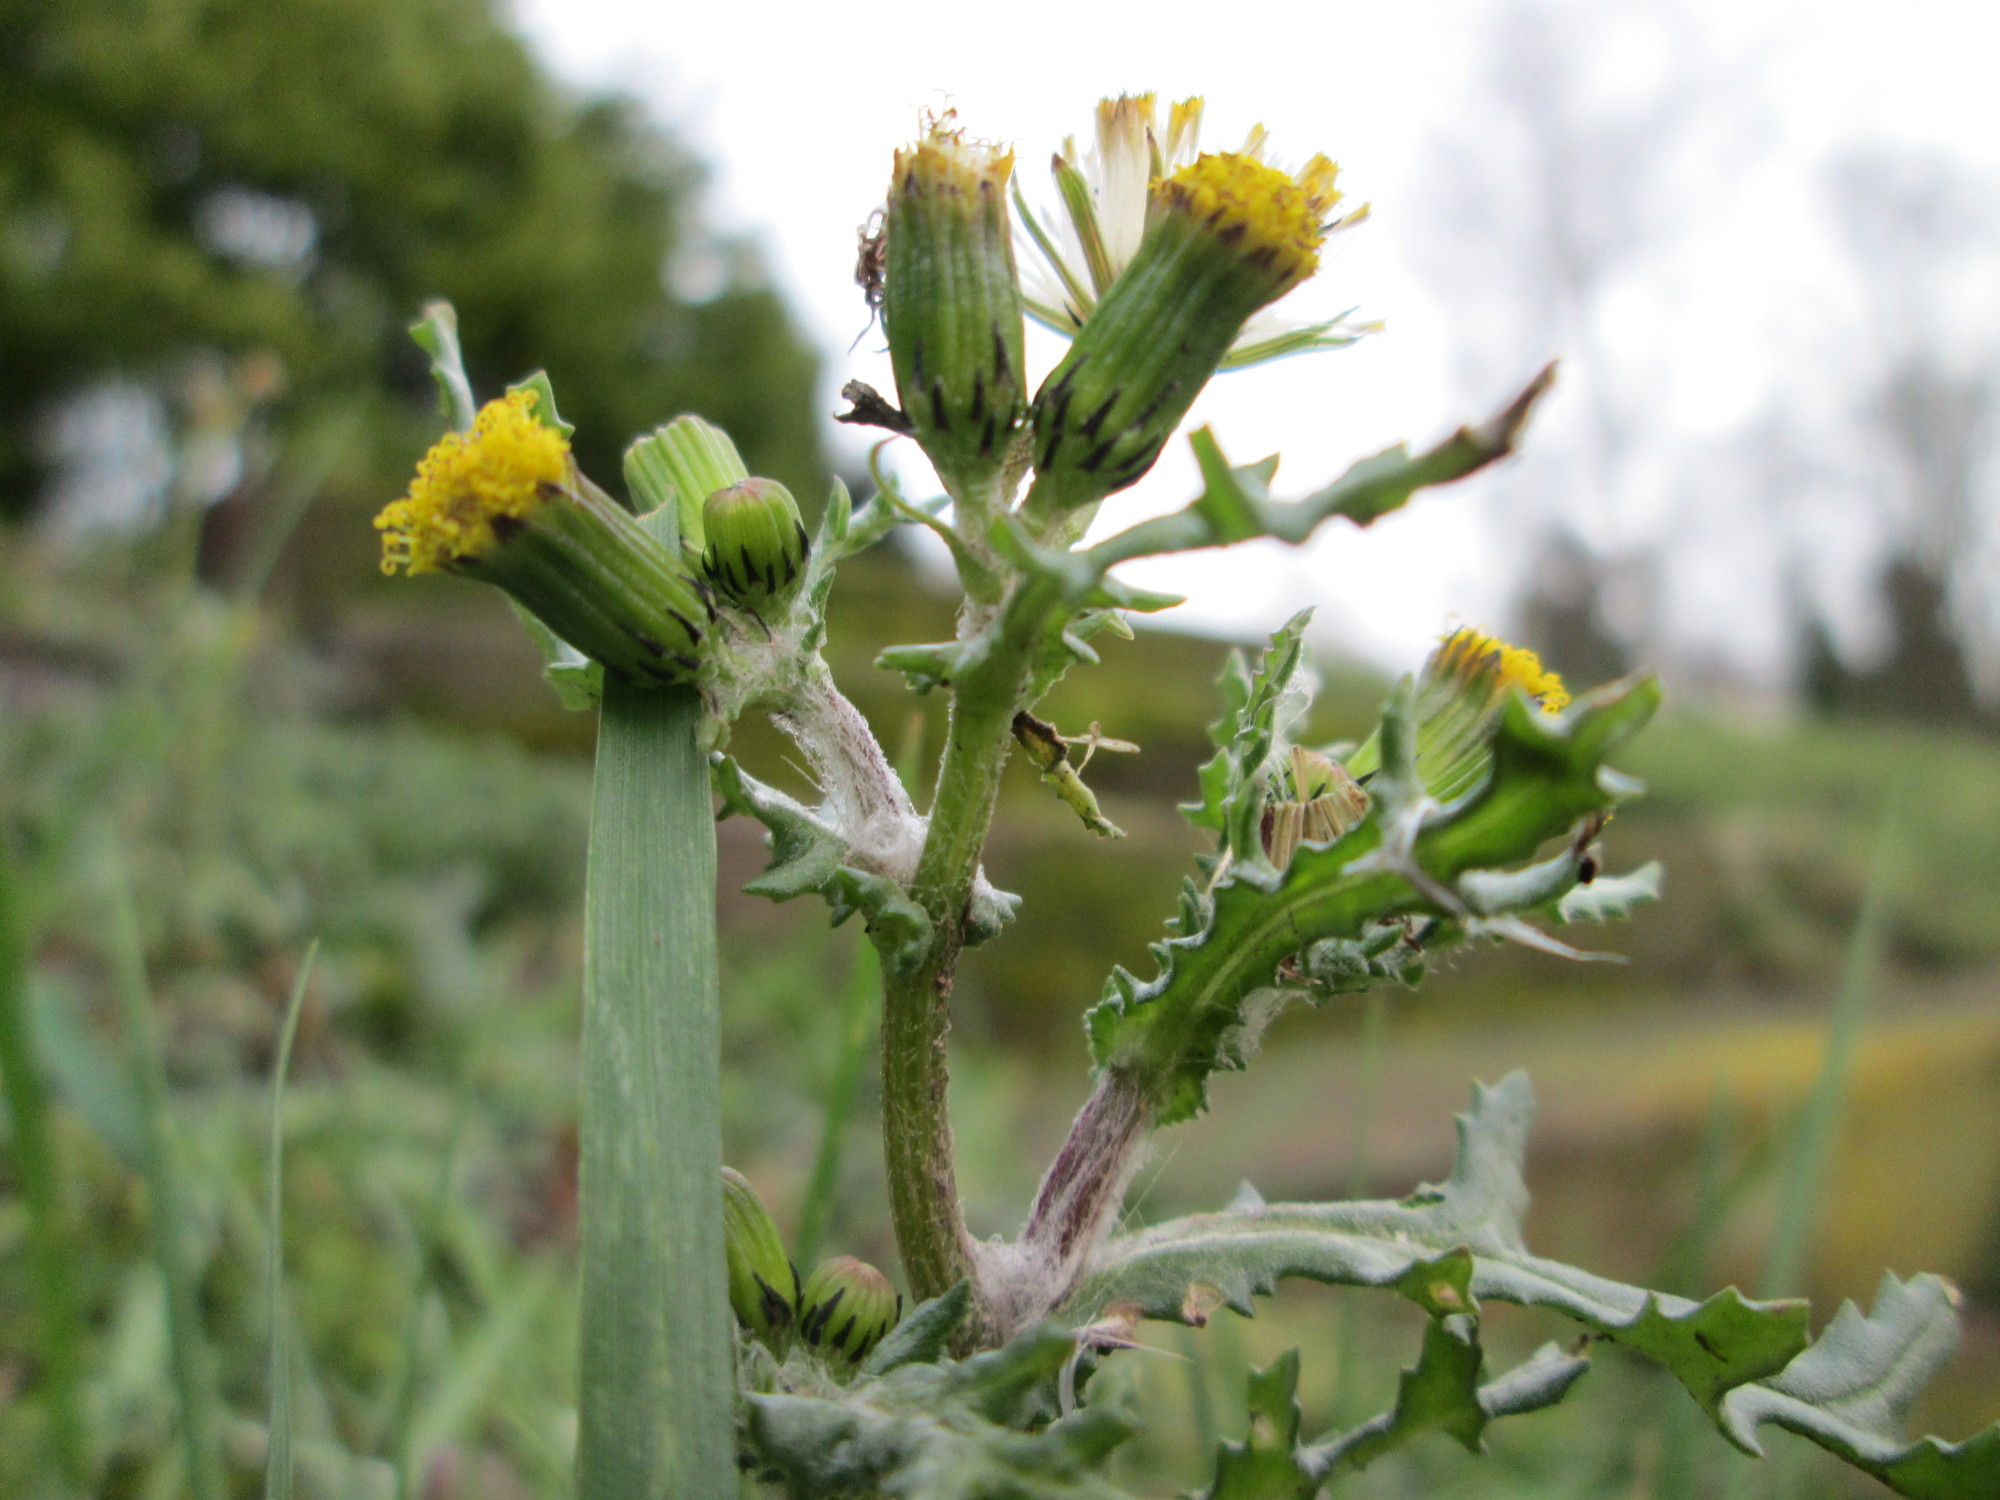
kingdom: Plantae
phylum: Tracheophyta
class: Magnoliopsida
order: Asterales
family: Asteraceae
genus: Senecio
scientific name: Senecio vulgaris
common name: Old-man-in-the-spring
